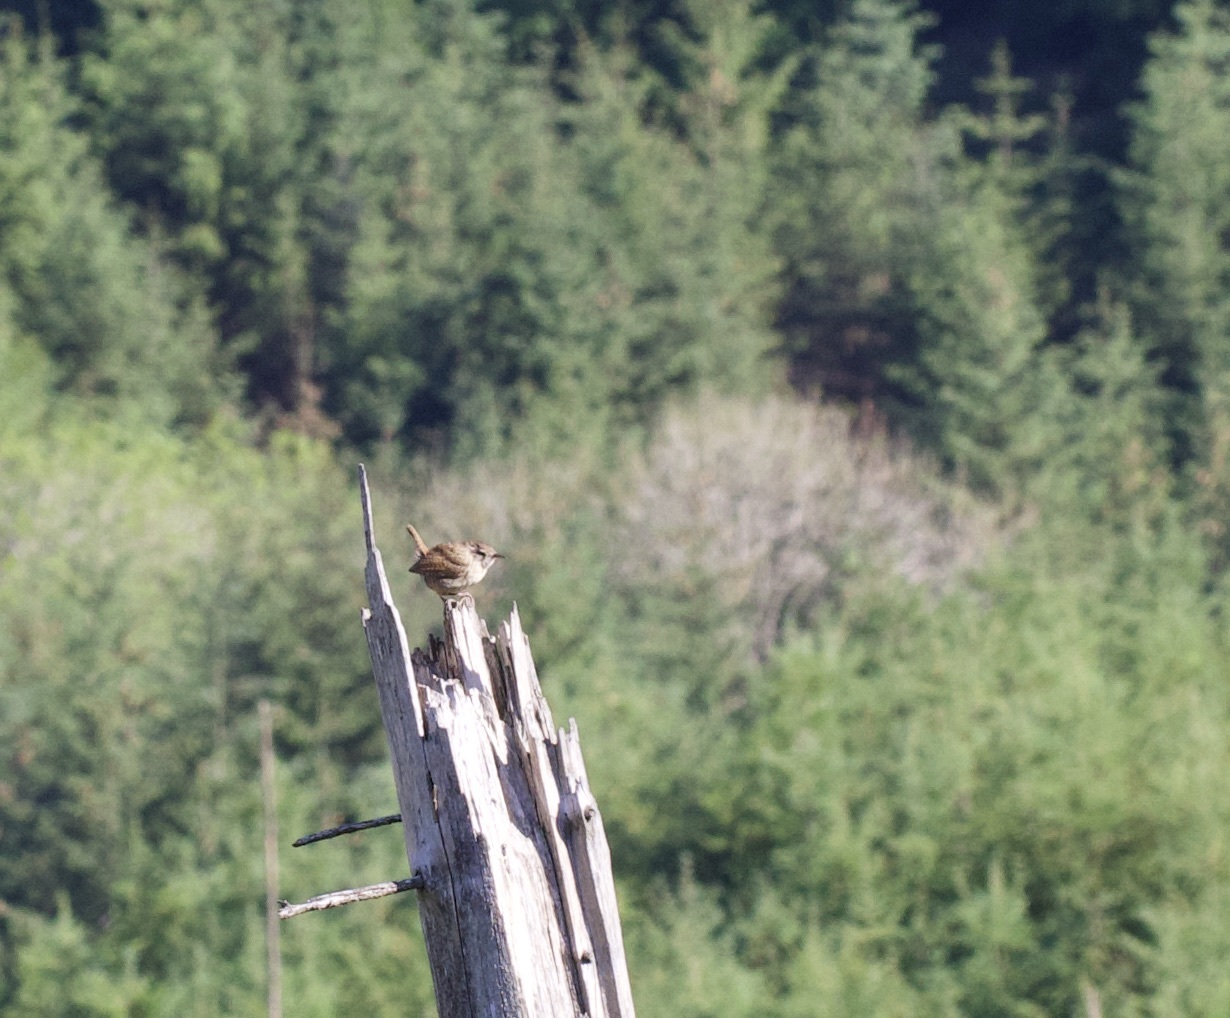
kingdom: Animalia
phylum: Chordata
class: Aves
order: Passeriformes
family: Troglodytidae
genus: Troglodytes
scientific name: Troglodytes troglodytes
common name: Eurasian wren
